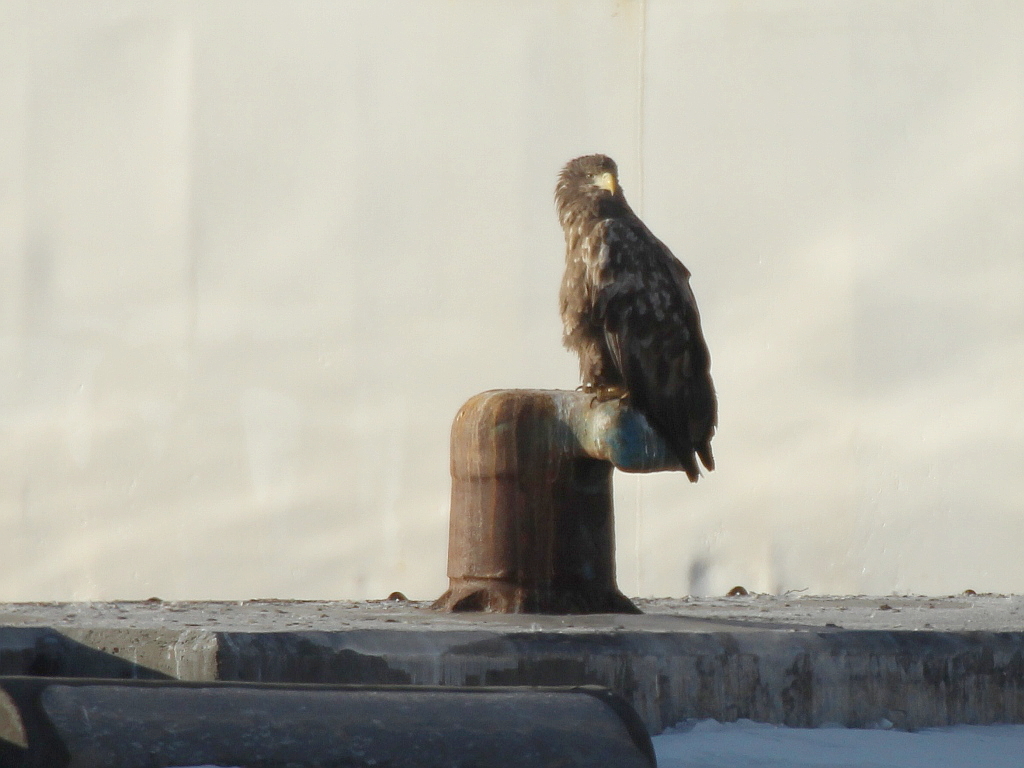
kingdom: Animalia
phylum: Chordata
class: Aves
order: Accipitriformes
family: Accipitridae
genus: Haliaeetus
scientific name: Haliaeetus albicilla
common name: White-tailed eagle
